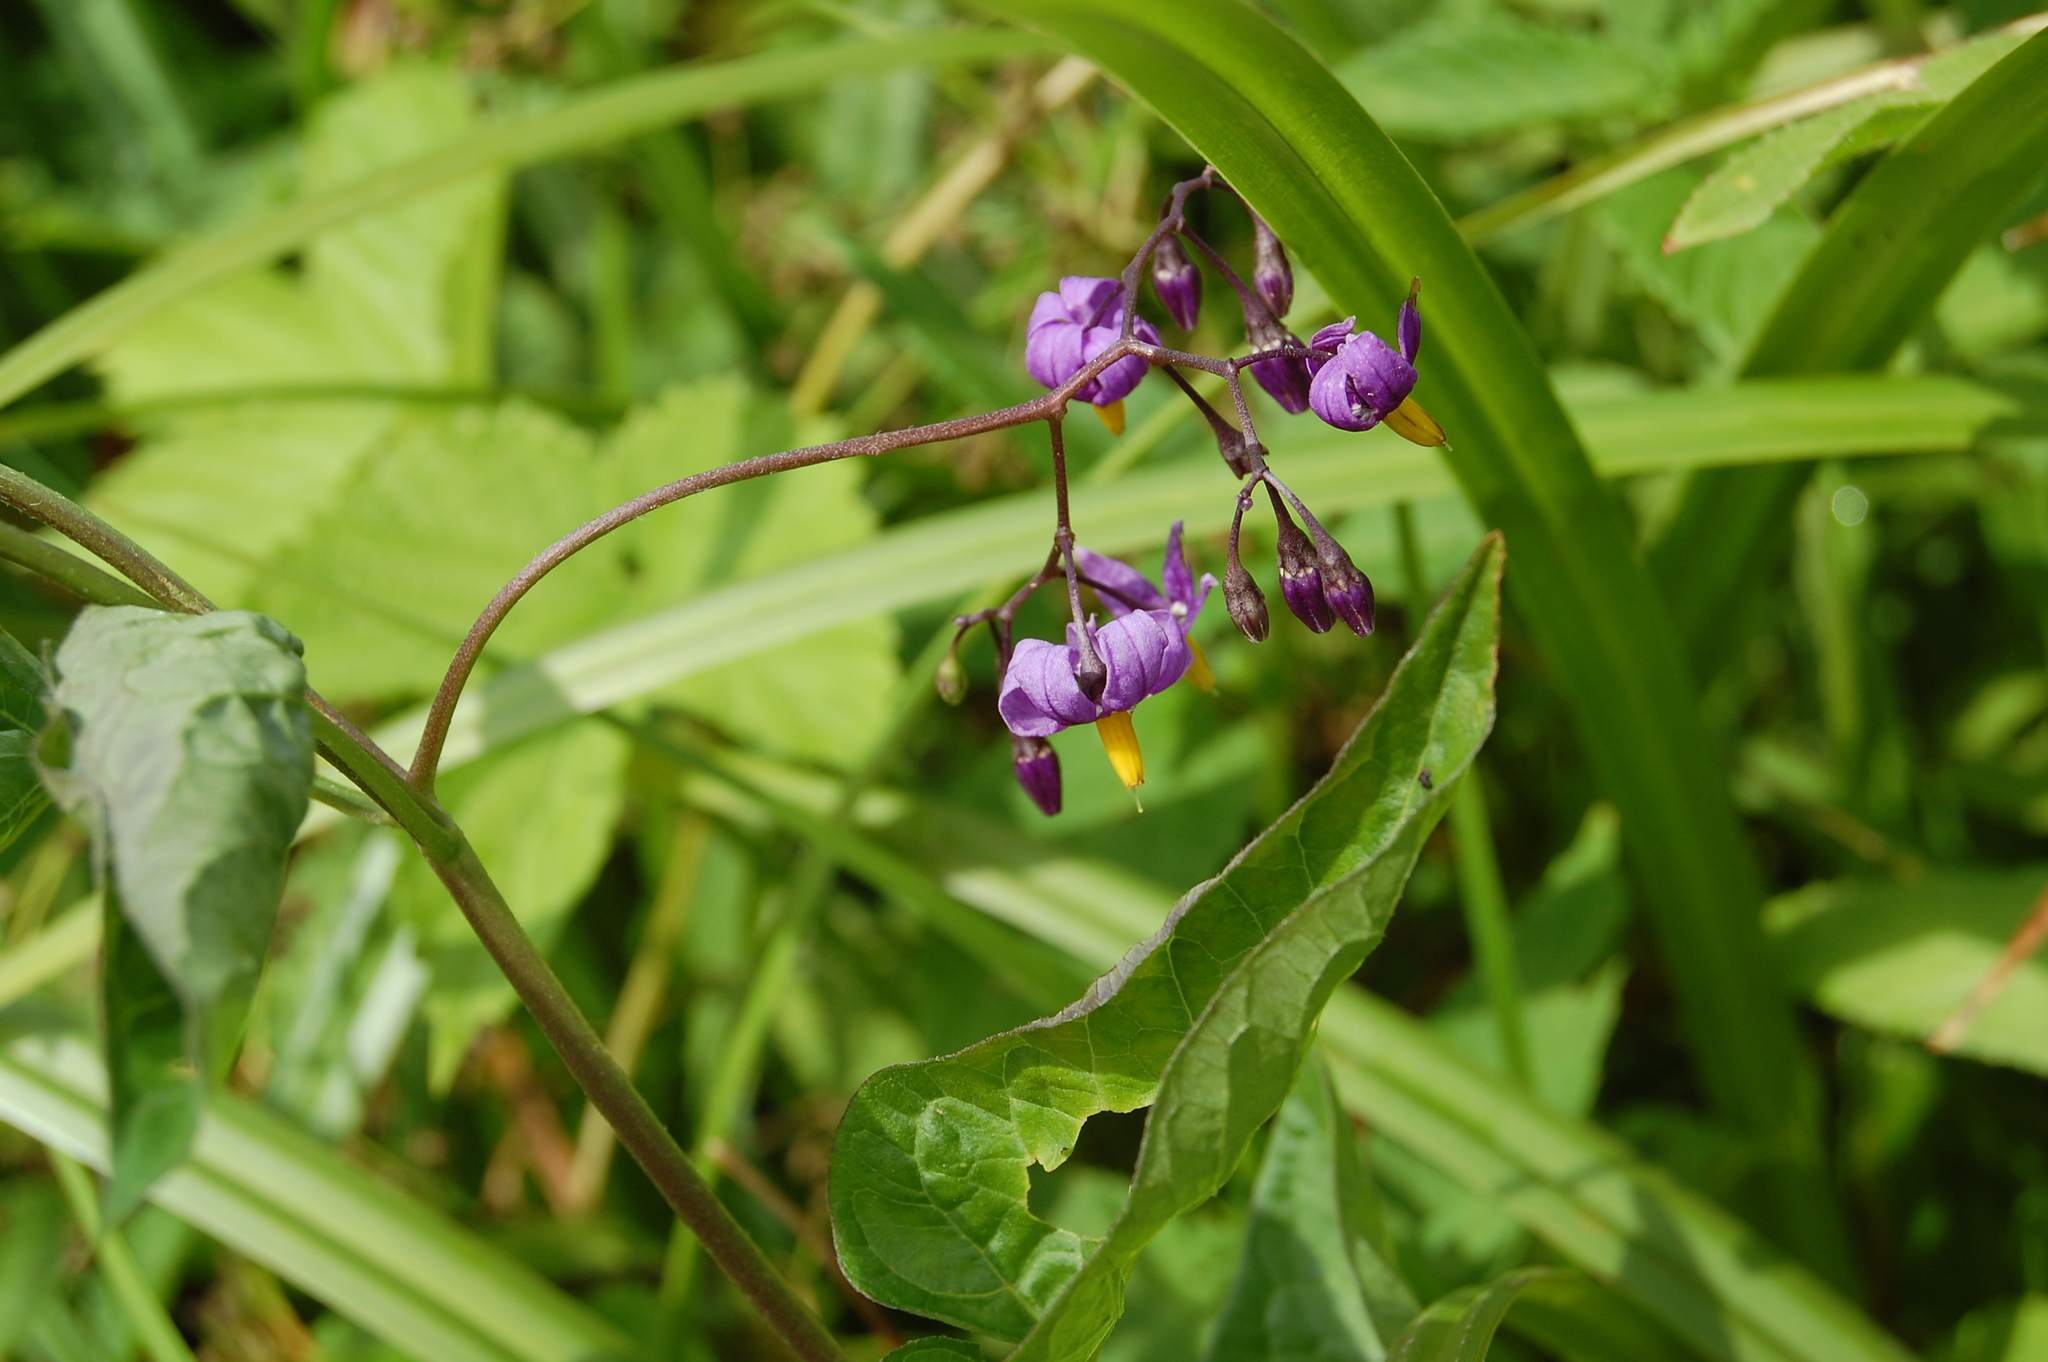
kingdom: Plantae
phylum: Tracheophyta
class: Magnoliopsida
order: Solanales
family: Solanaceae
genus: Solanum
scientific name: Solanum dulcamara
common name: Climbing nightshade
